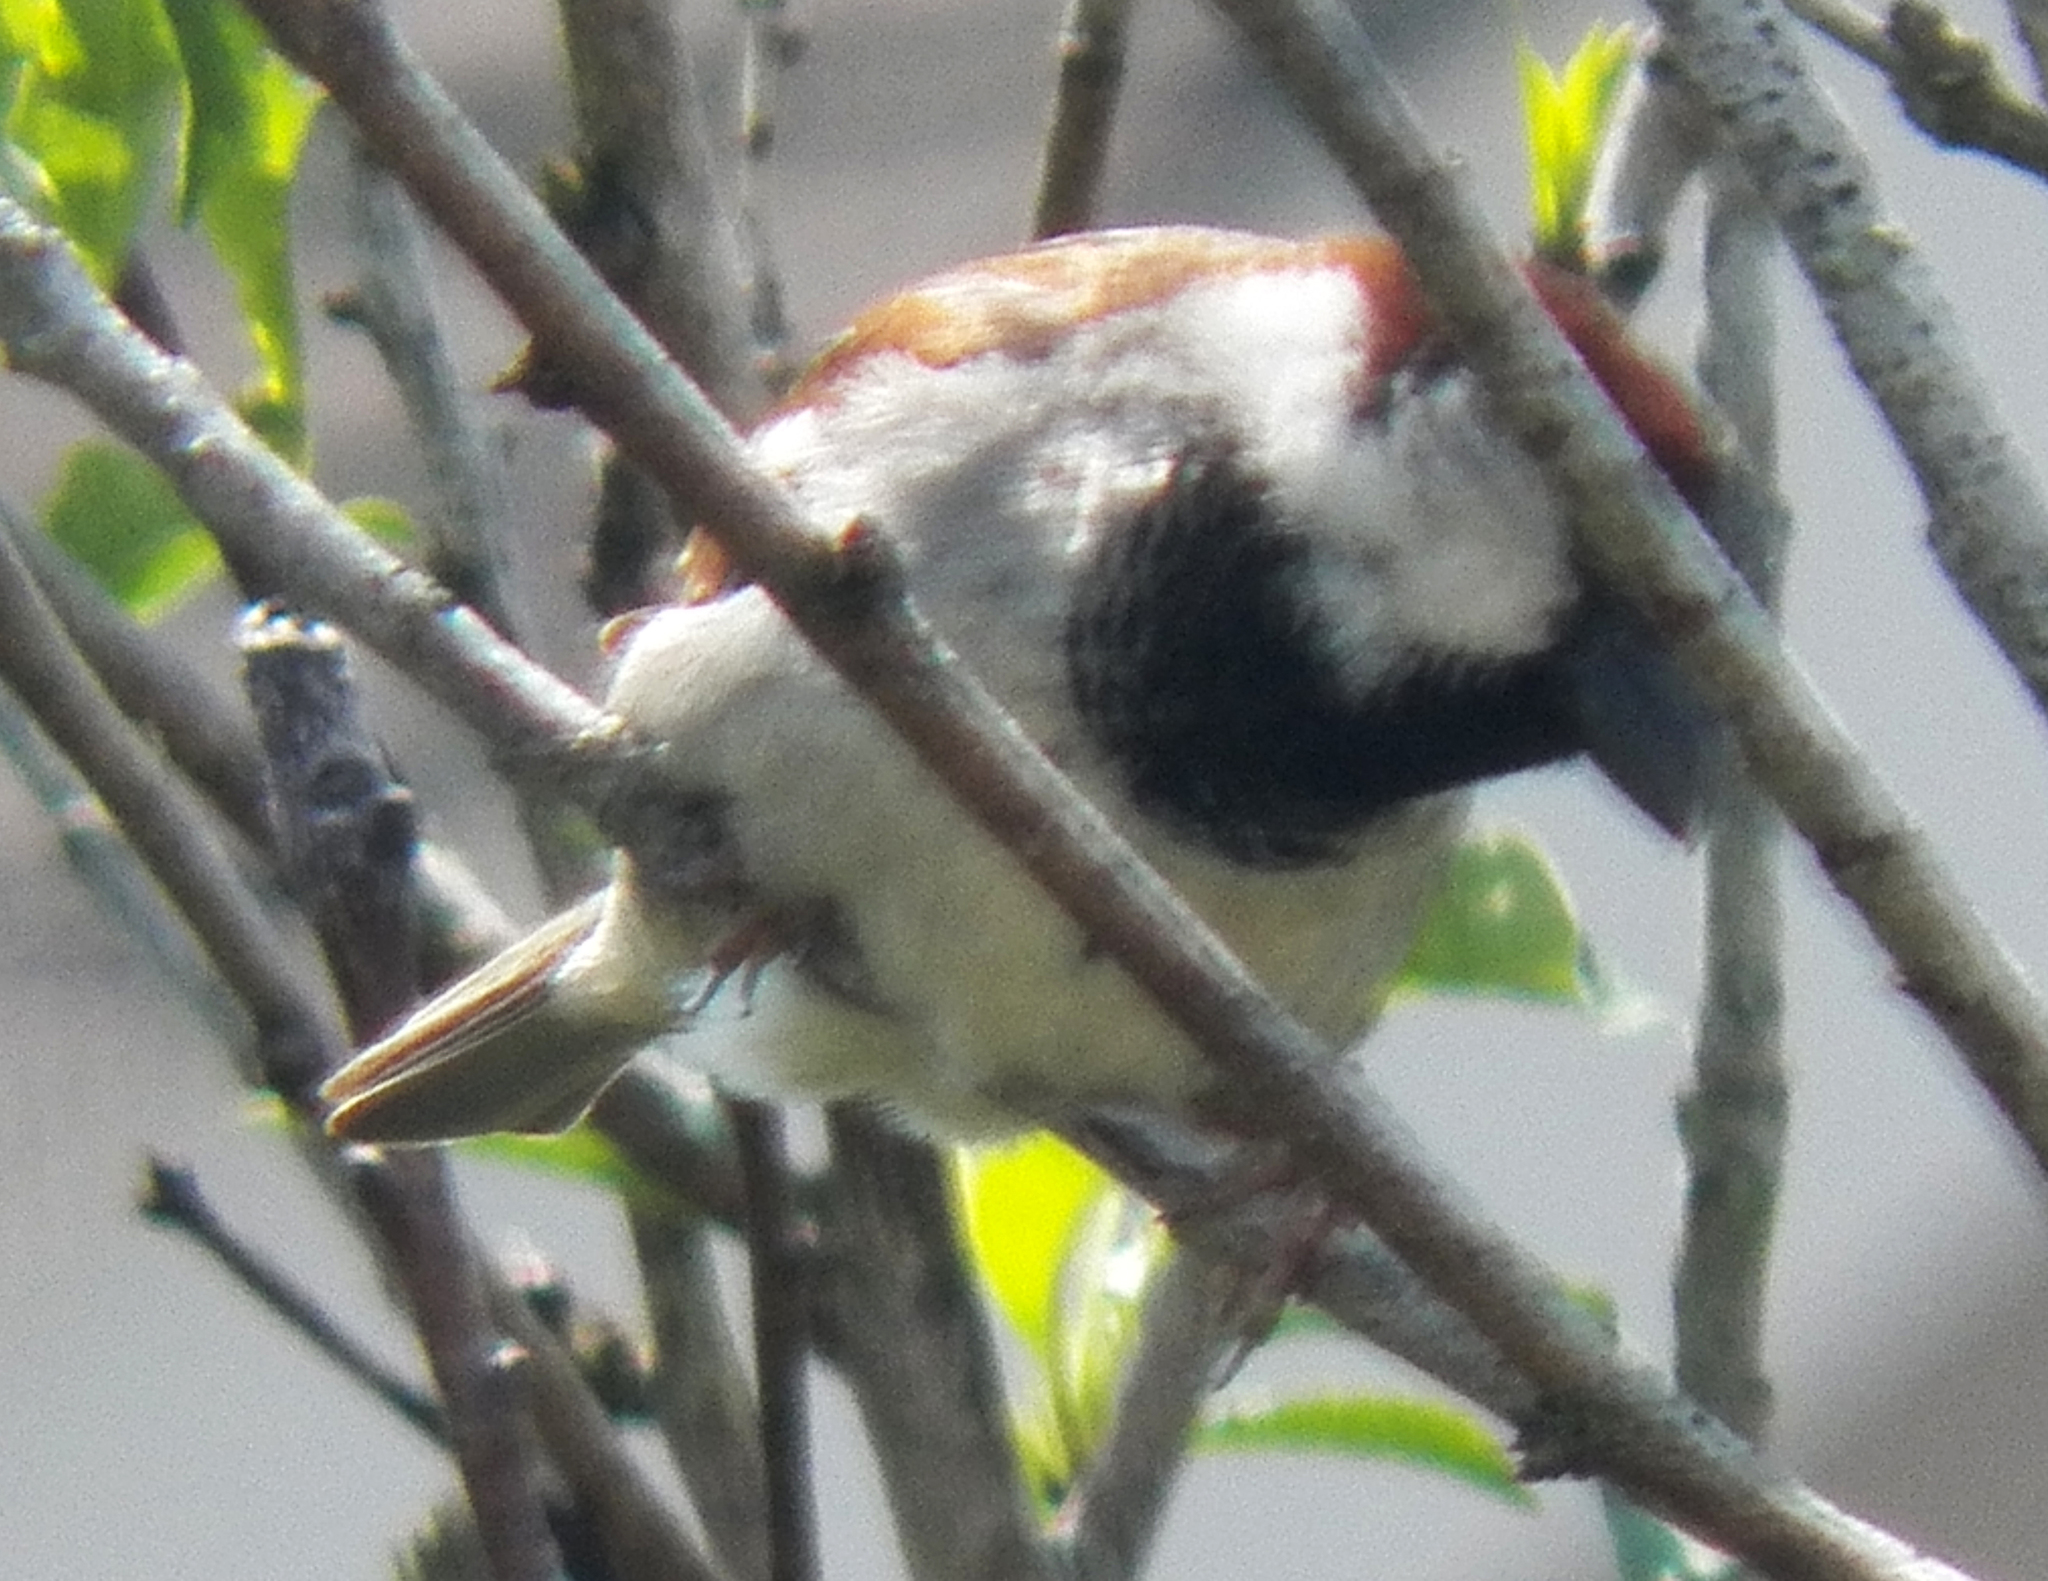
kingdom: Animalia
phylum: Chordata
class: Aves
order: Passeriformes
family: Passeridae
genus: Passer
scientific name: Passer domesticus
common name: House sparrow
